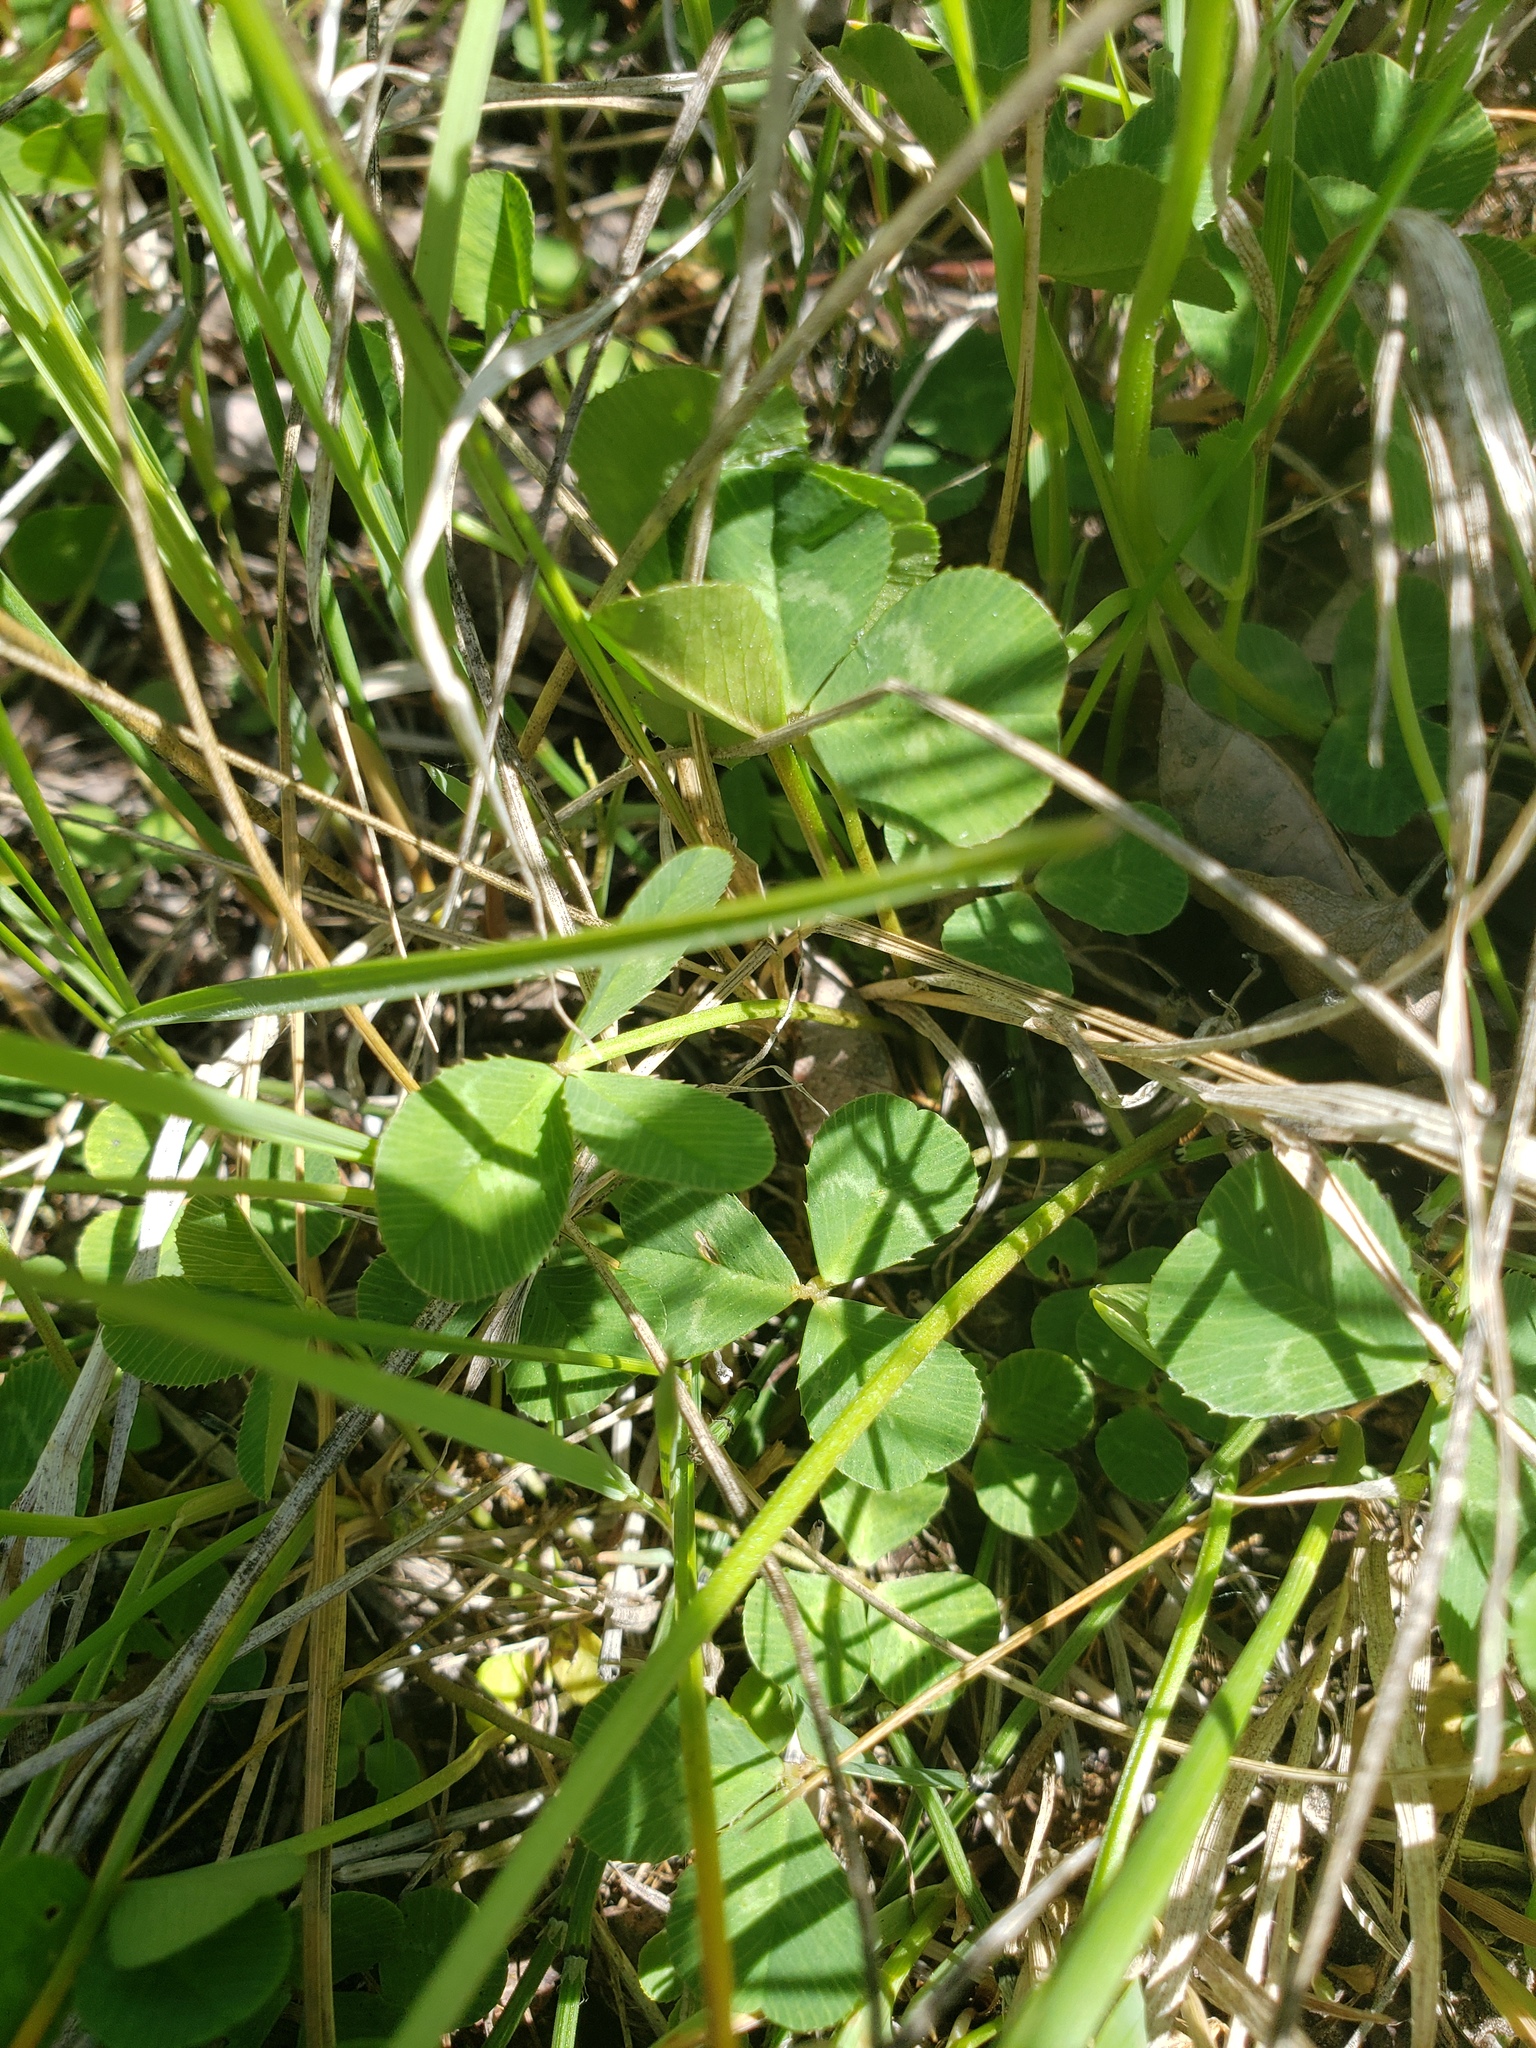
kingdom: Plantae
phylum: Tracheophyta
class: Magnoliopsida
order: Fabales
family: Fabaceae
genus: Trifolium
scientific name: Trifolium repens
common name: White clover
